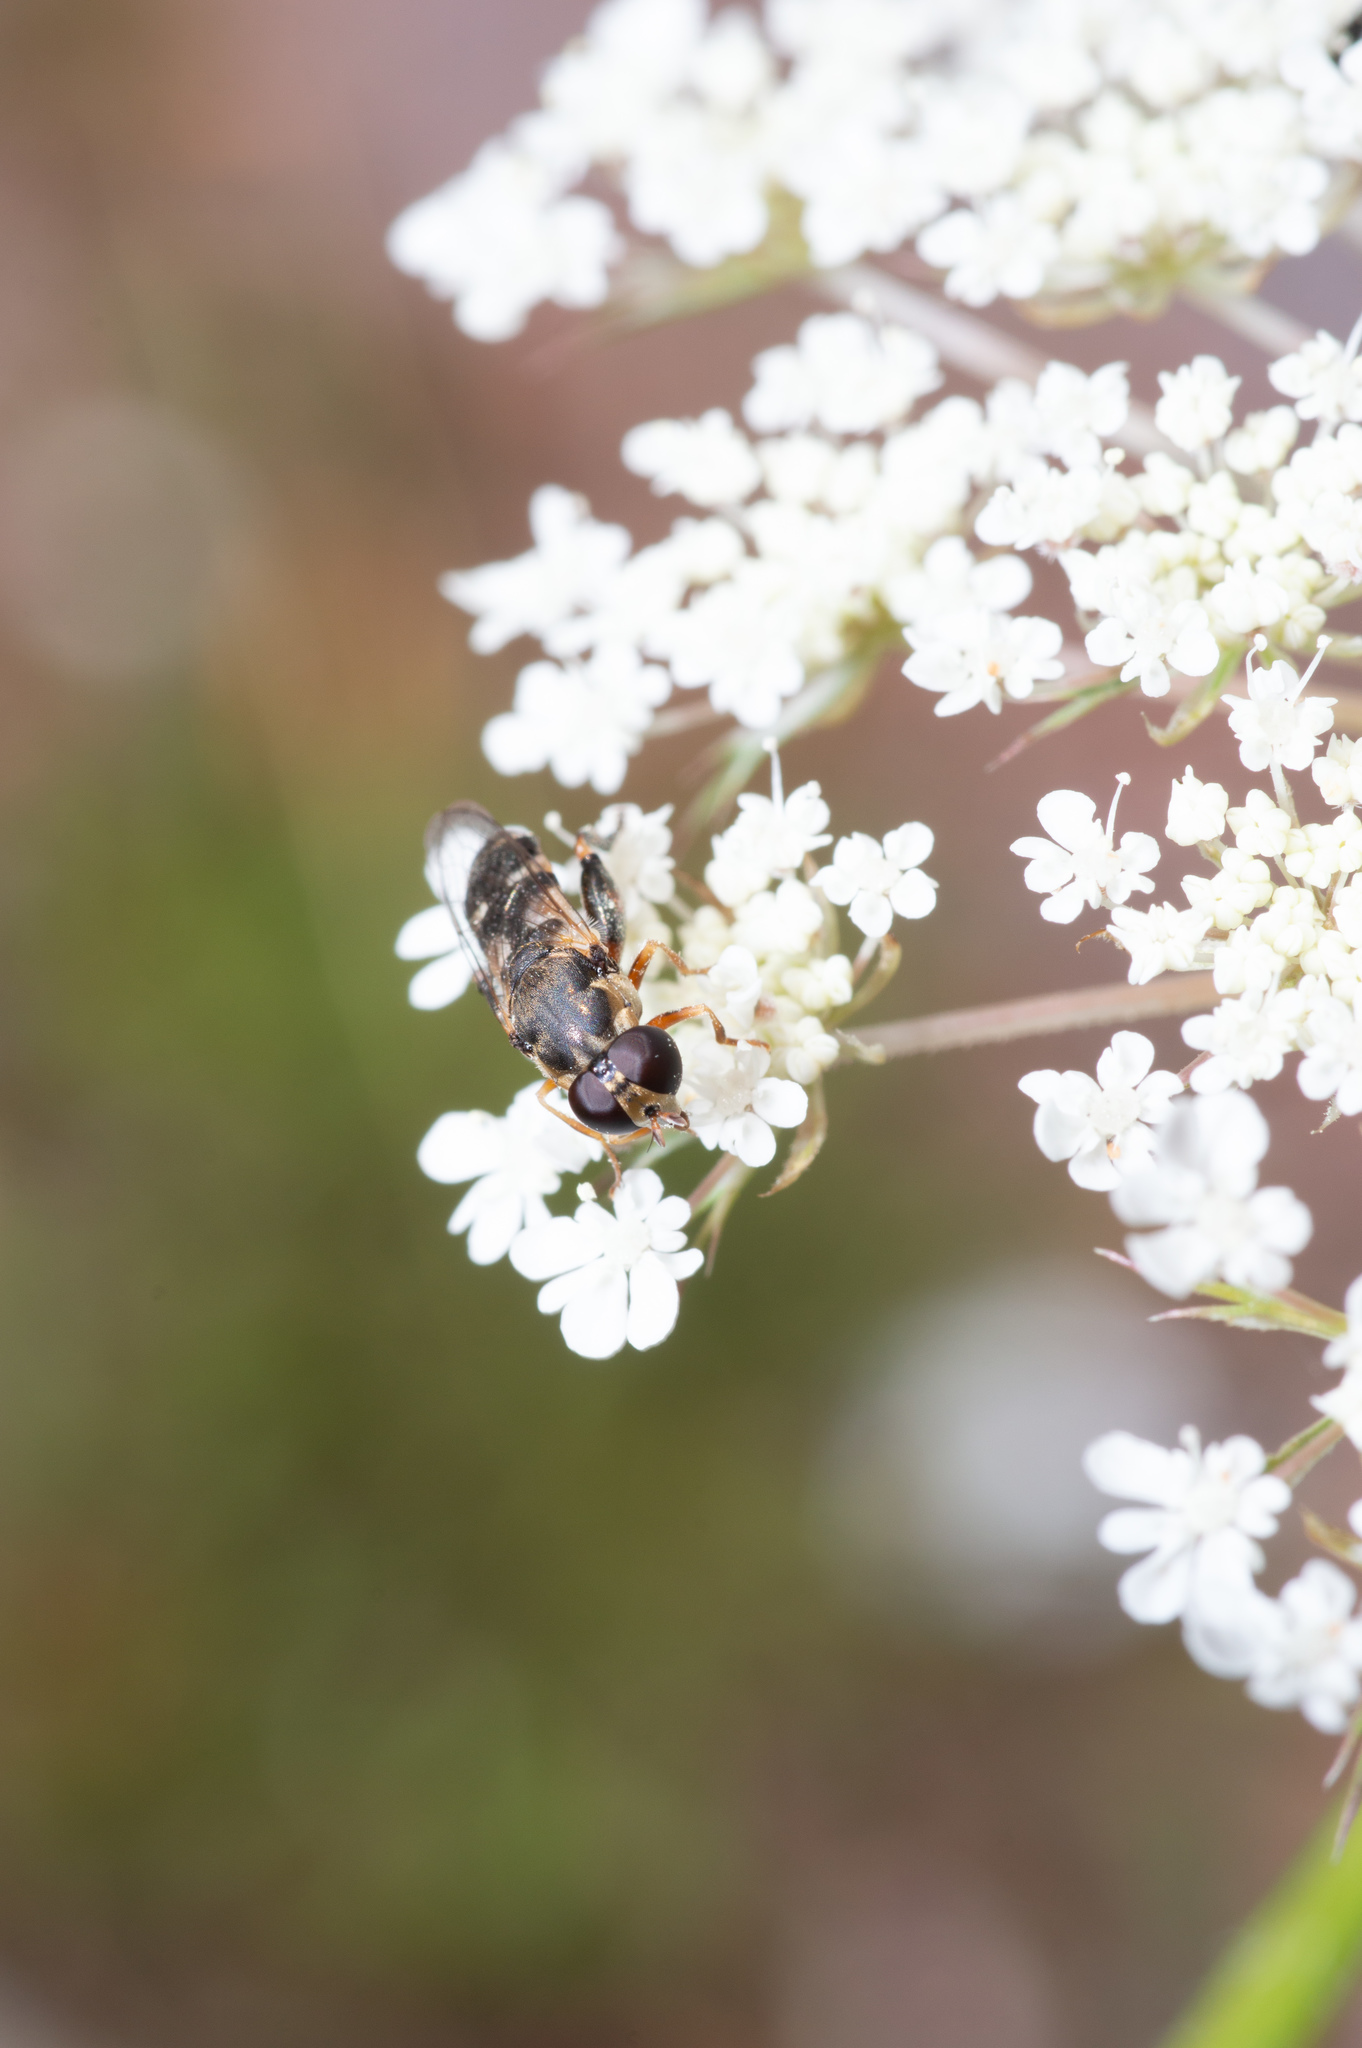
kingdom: Animalia
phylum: Arthropoda
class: Insecta
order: Diptera
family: Syrphidae
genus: Syritta
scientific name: Syritta pipiens
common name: Hover fly
